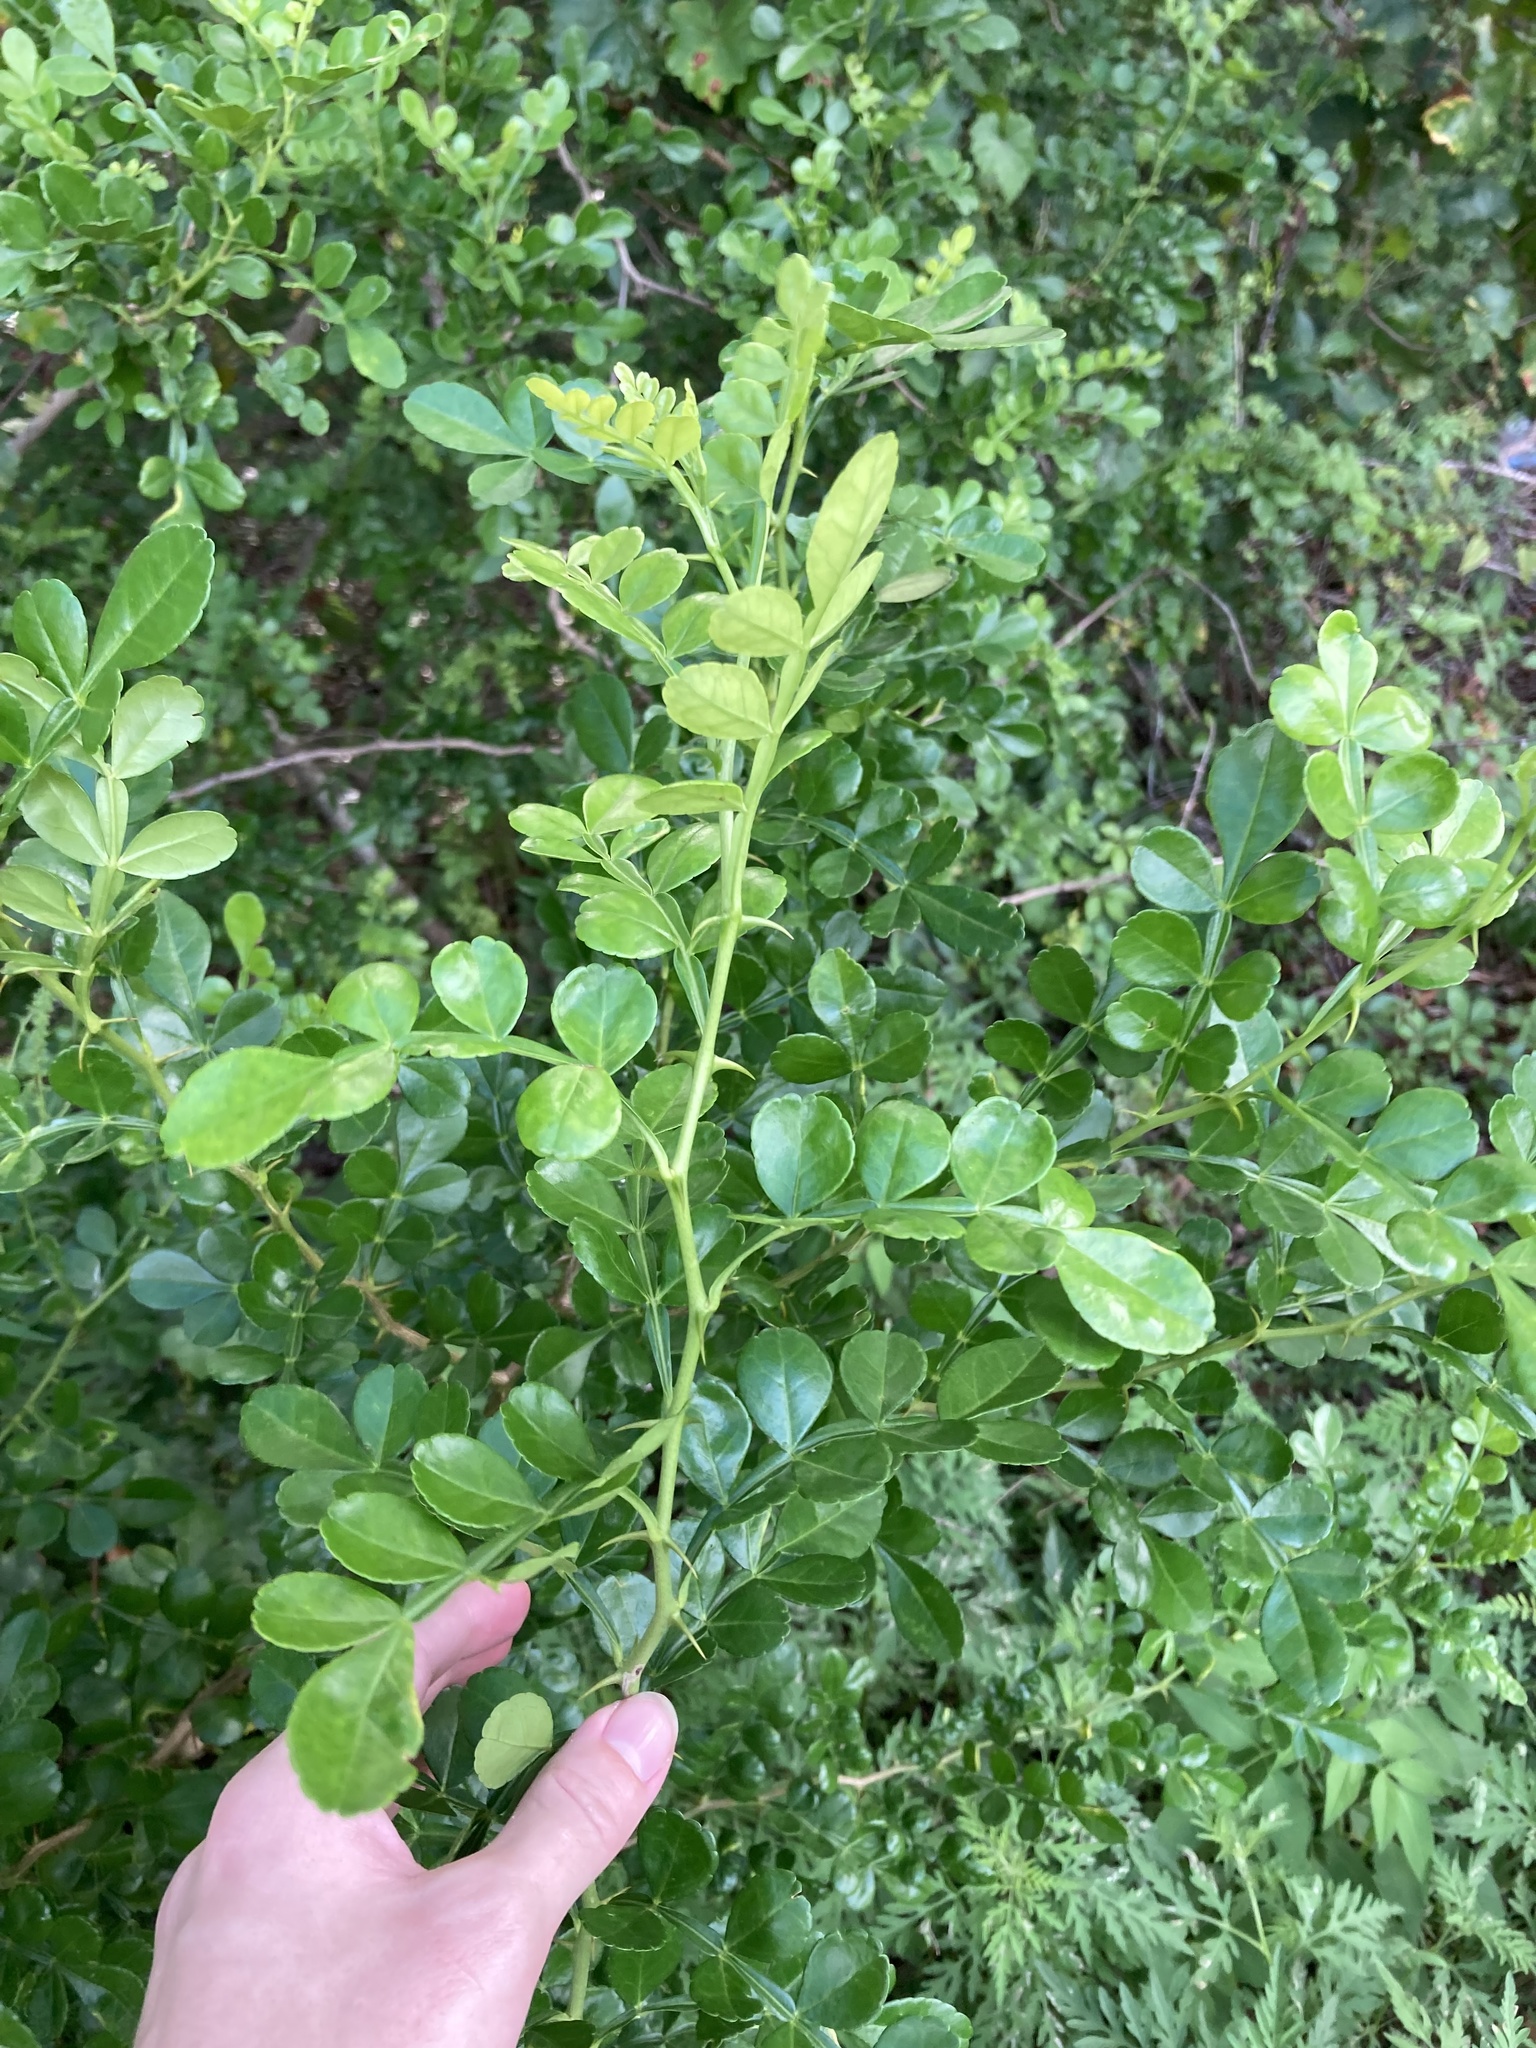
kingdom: Plantae
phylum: Tracheophyta
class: Magnoliopsida
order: Sapindales
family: Rutaceae
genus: Zanthoxylum
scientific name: Zanthoxylum fagara
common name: Lime prickly-ash
